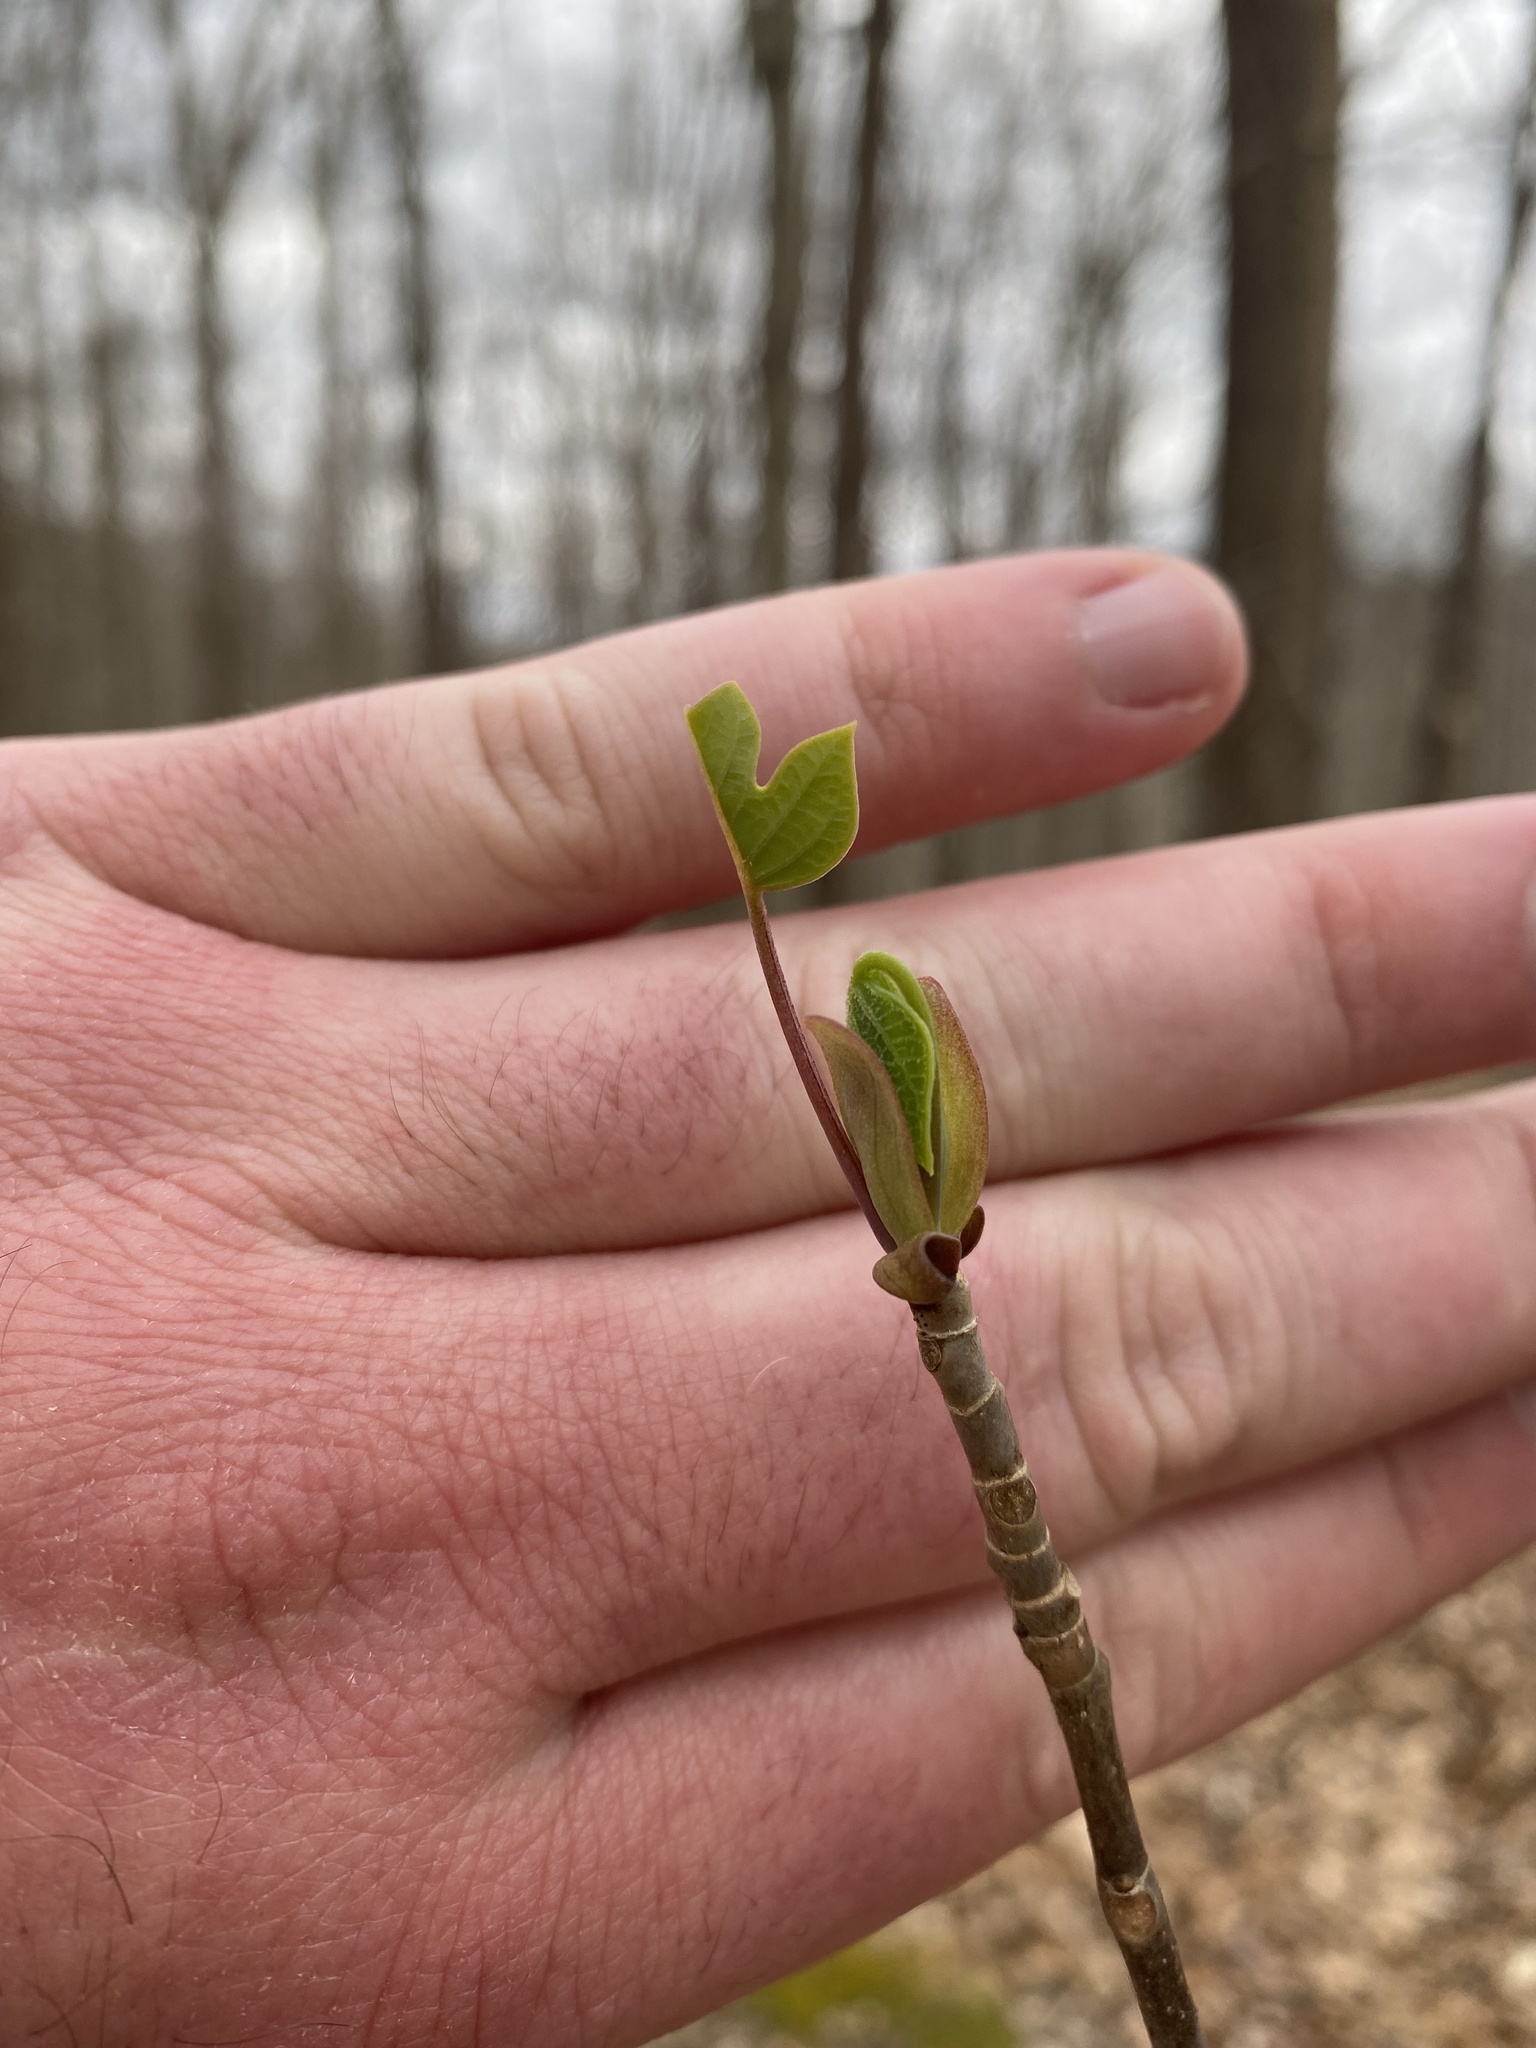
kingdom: Plantae
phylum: Tracheophyta
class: Magnoliopsida
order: Magnoliales
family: Magnoliaceae
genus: Liriodendron
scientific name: Liriodendron tulipifera
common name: Tulip tree
